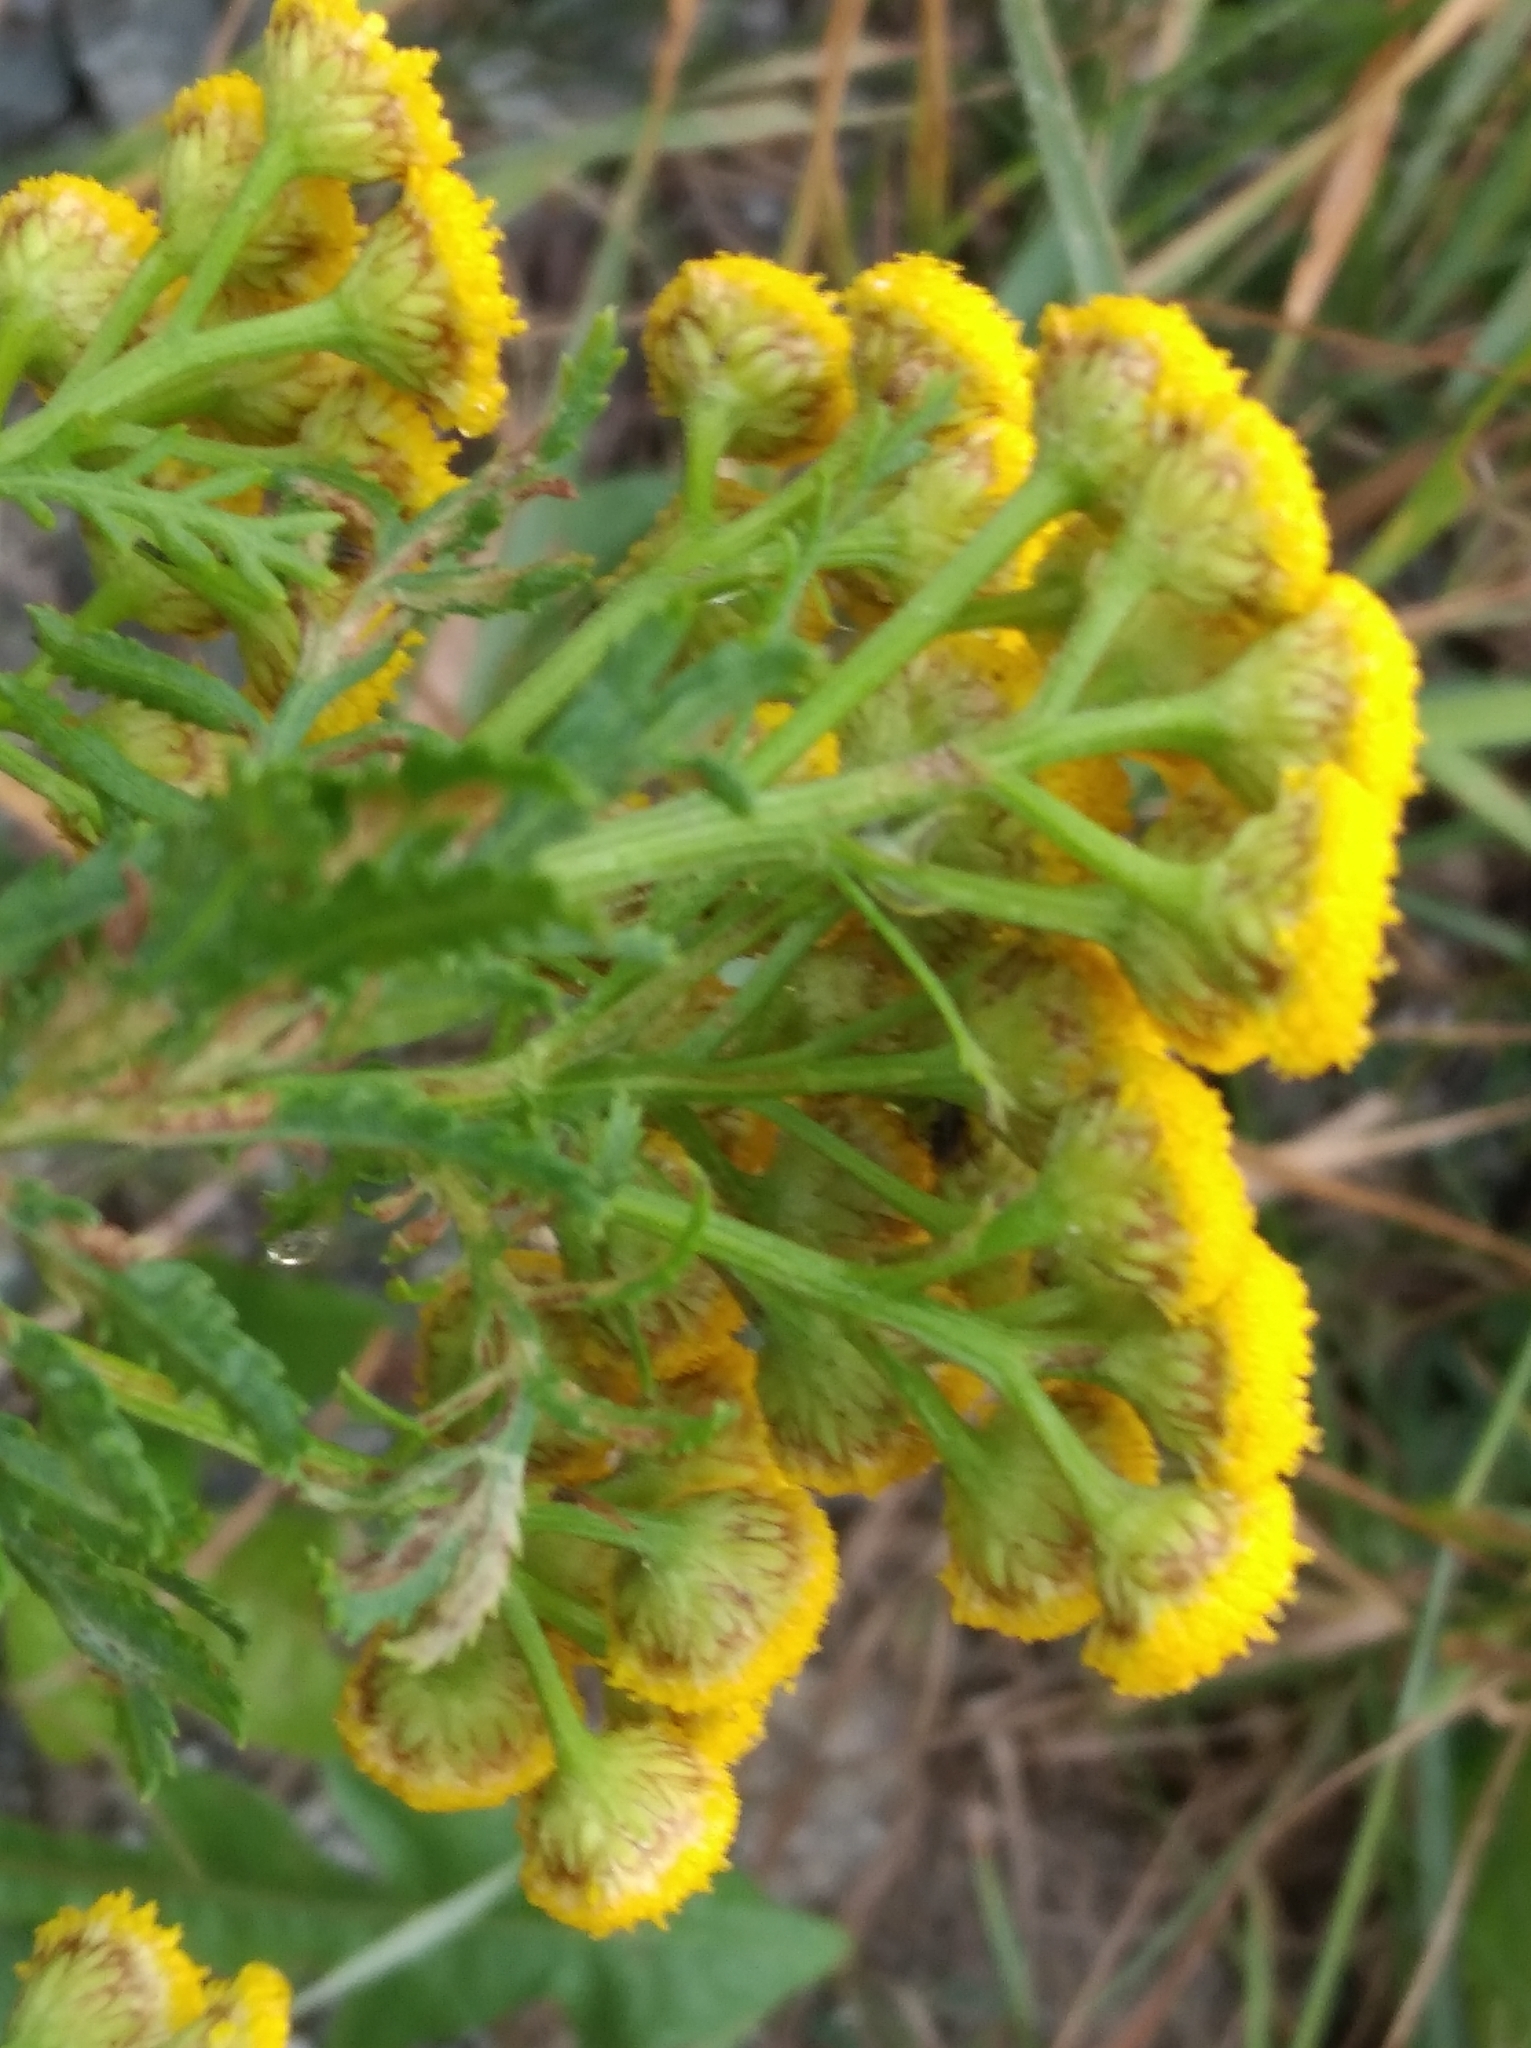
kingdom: Plantae
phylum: Tracheophyta
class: Magnoliopsida
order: Asterales
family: Asteraceae
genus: Tanacetum
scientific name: Tanacetum vulgare
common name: Common tansy
